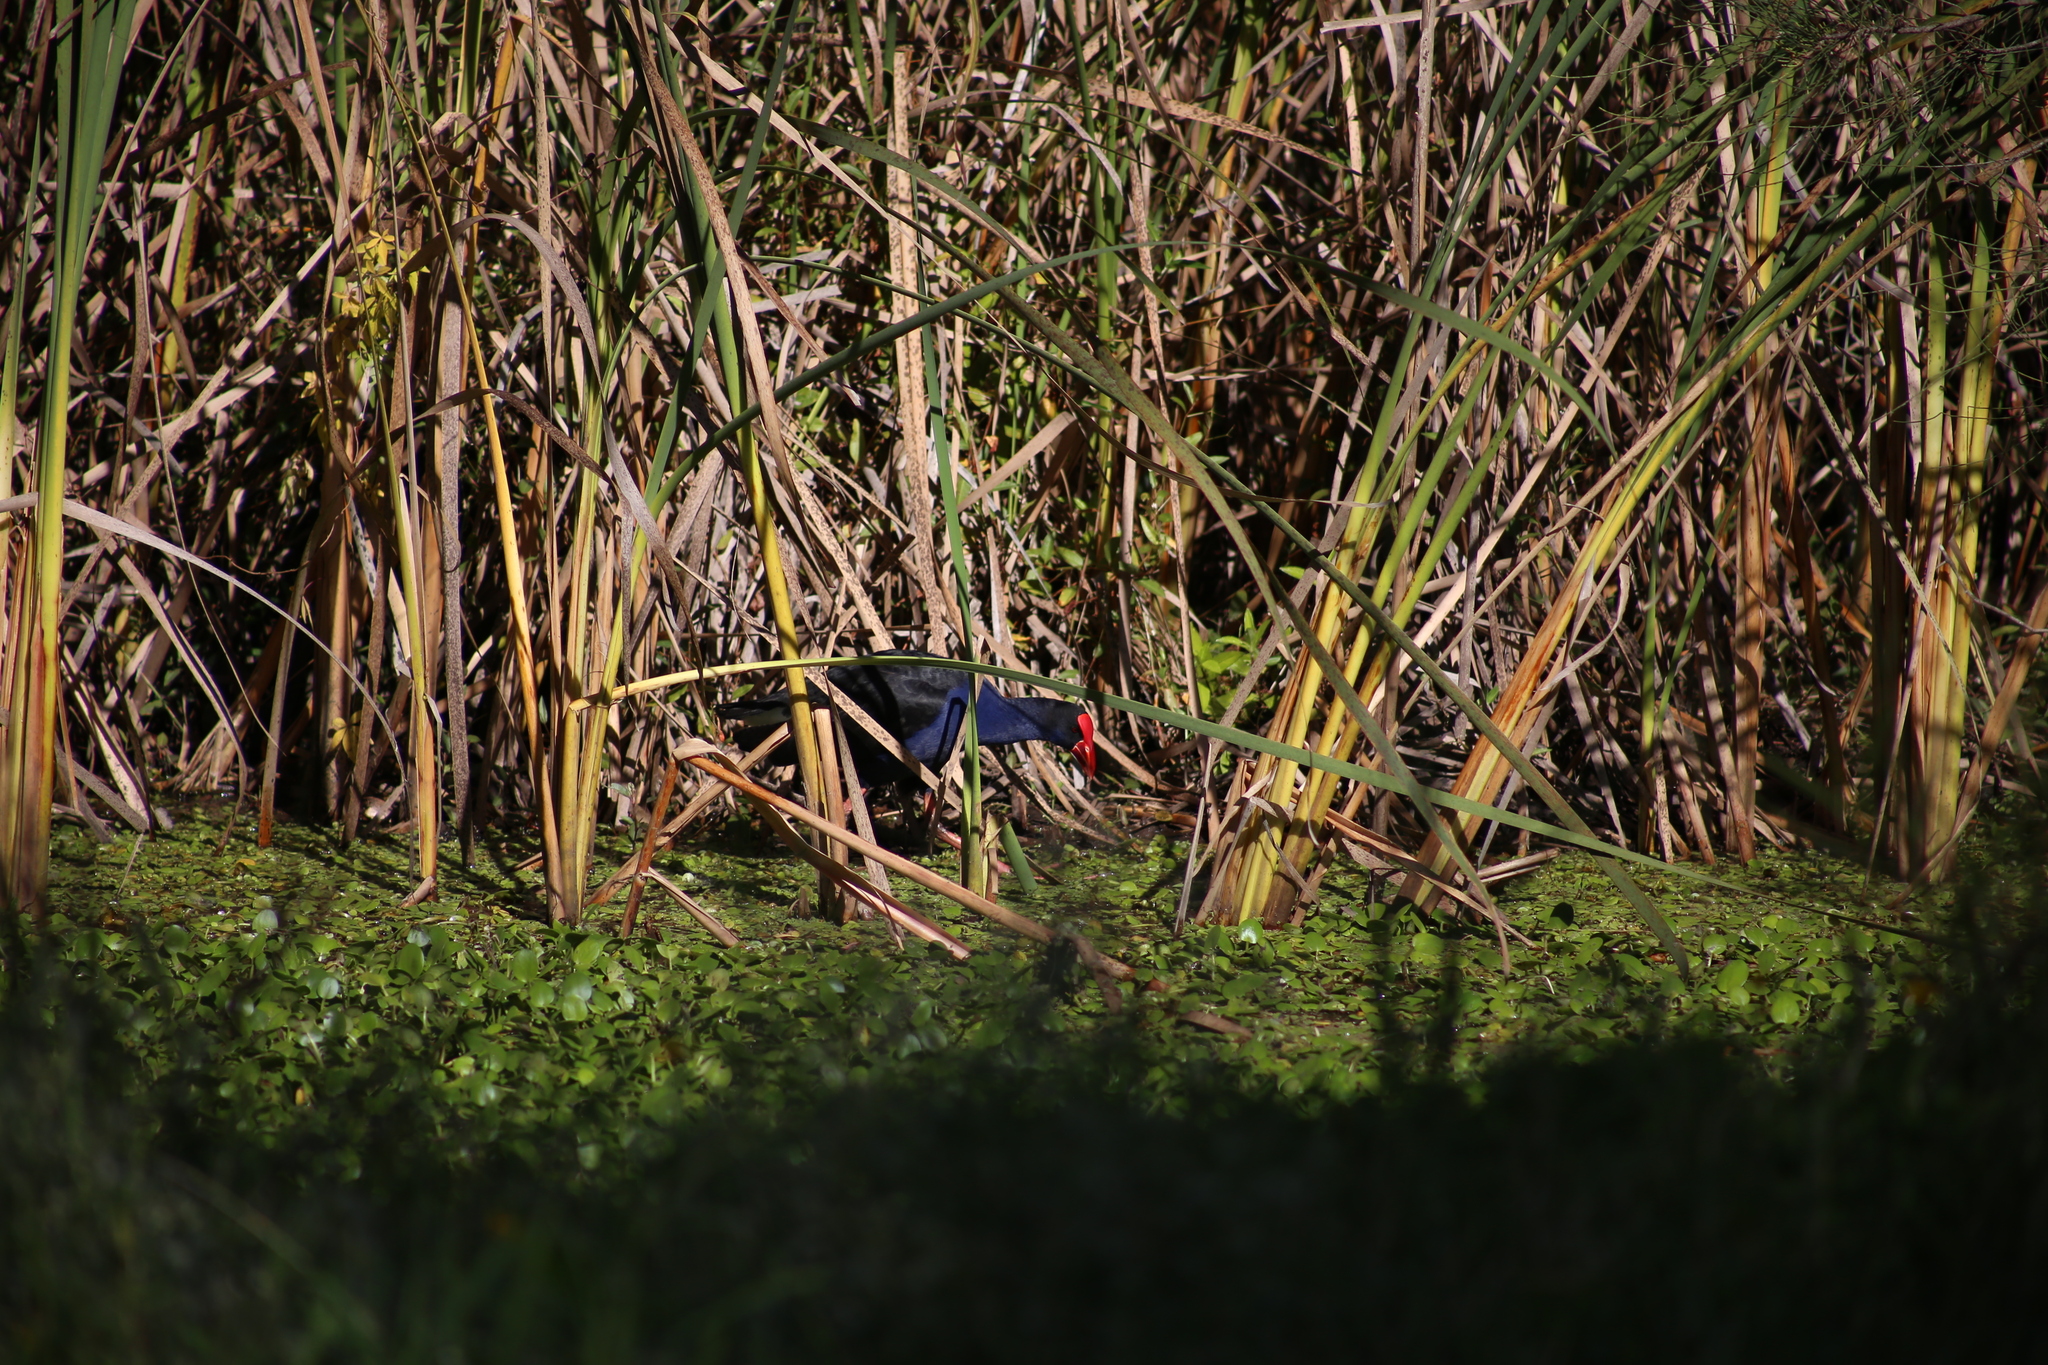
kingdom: Animalia
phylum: Chordata
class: Aves
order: Gruiformes
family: Rallidae
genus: Porphyrio
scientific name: Porphyrio melanotus
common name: Australasian swamphen
